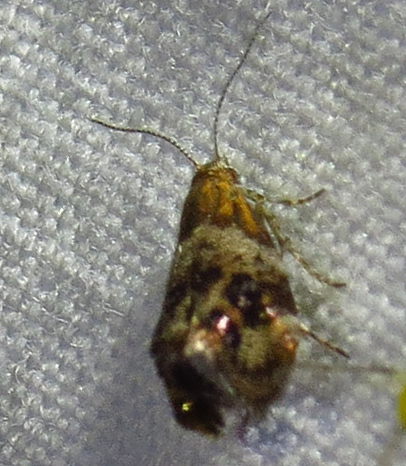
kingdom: Animalia
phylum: Arthropoda
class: Insecta
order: Lepidoptera
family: Choreutidae
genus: Tebenna
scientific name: Tebenna gnaphaliella
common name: Everlasting tebenna moth
